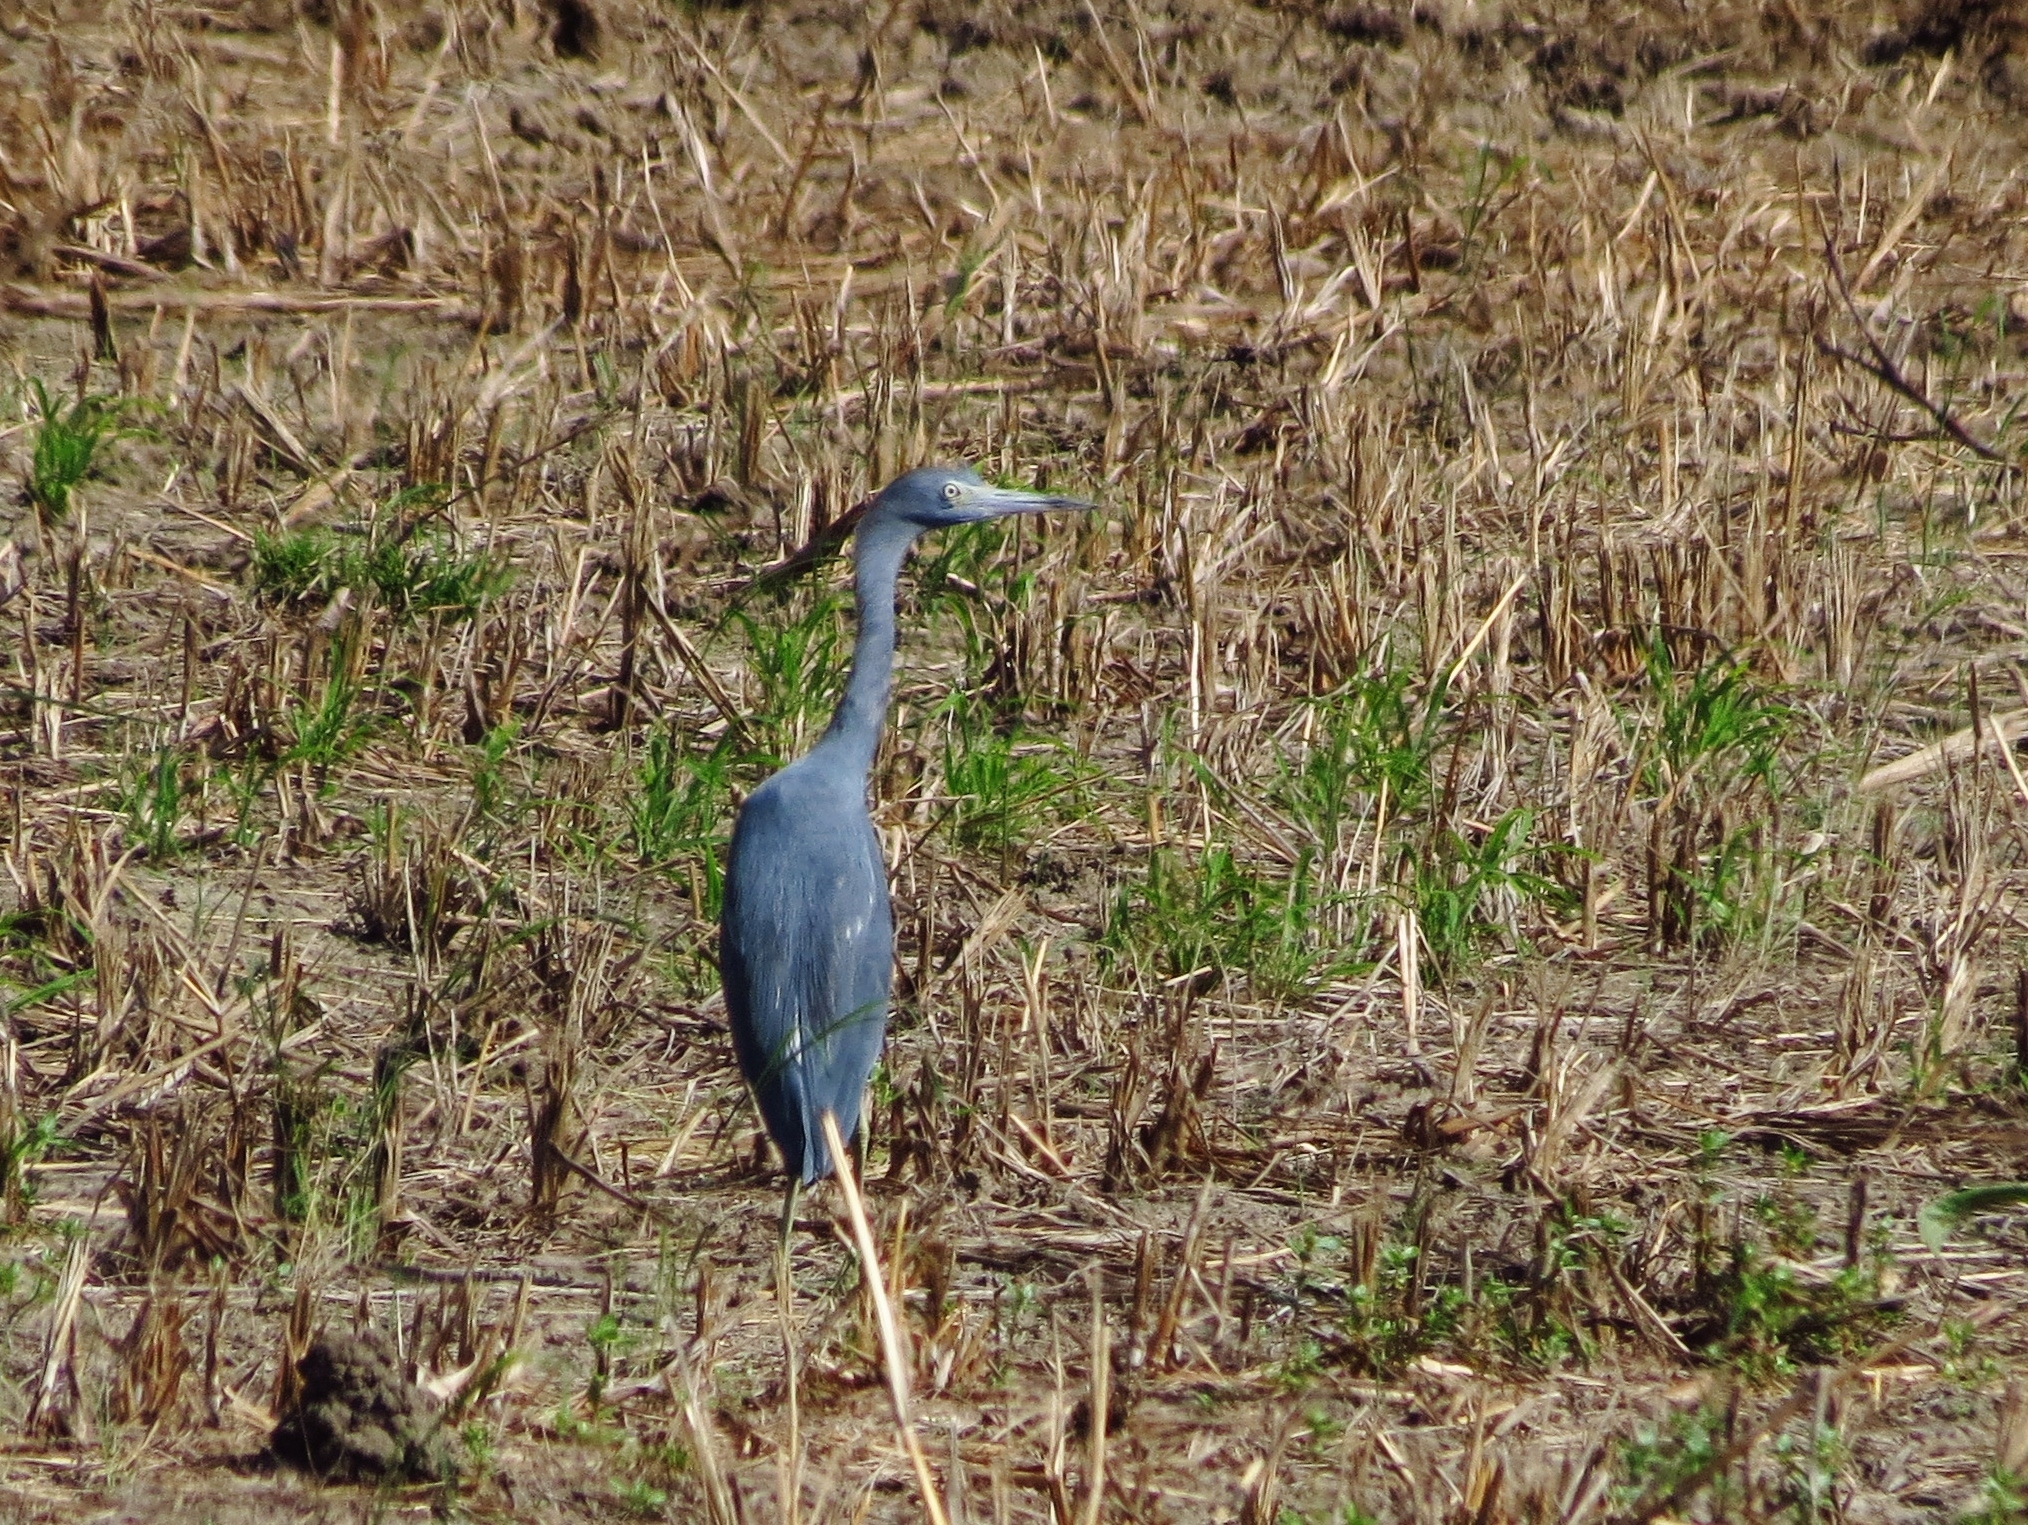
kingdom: Animalia
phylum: Chordata
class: Aves
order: Pelecaniformes
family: Ardeidae
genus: Egretta
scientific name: Egretta caerulea
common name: Little blue heron
